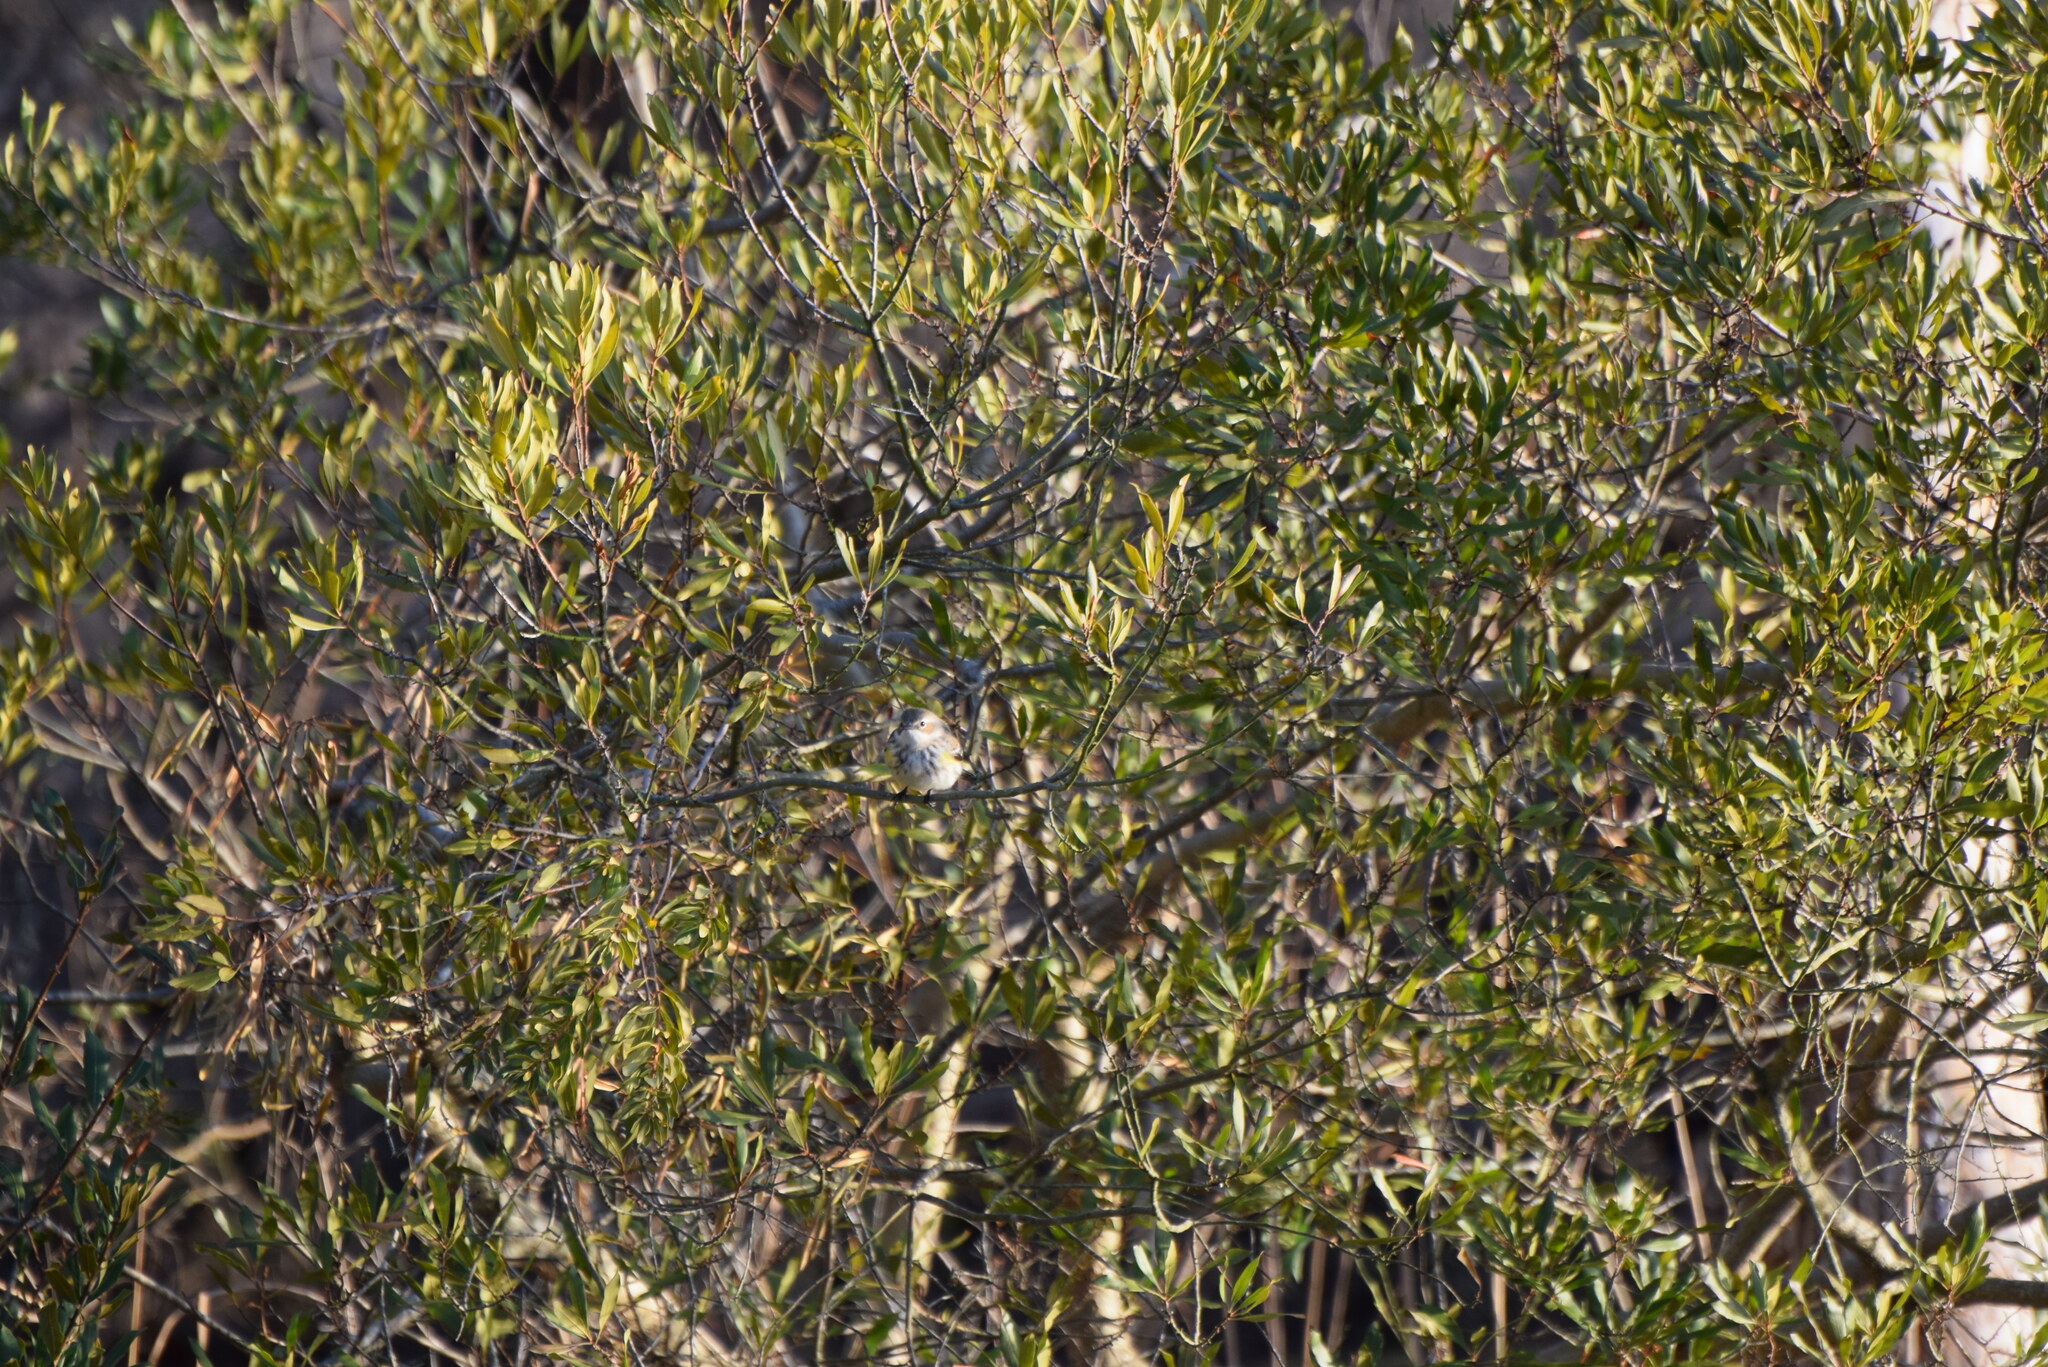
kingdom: Animalia
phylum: Chordata
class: Aves
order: Passeriformes
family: Parulidae
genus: Setophaga
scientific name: Setophaga coronata
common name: Myrtle warbler
